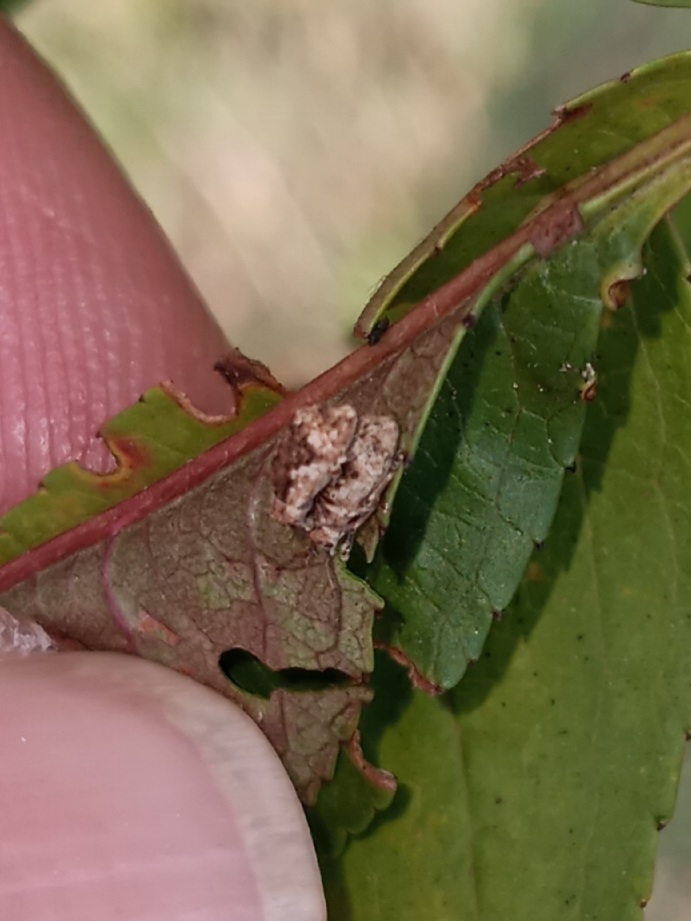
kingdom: Animalia
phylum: Arthropoda
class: Insecta
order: Coleoptera
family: Curculionidae
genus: Pseudoedophrys
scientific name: Pseudoedophrys hilleri
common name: Weevil
